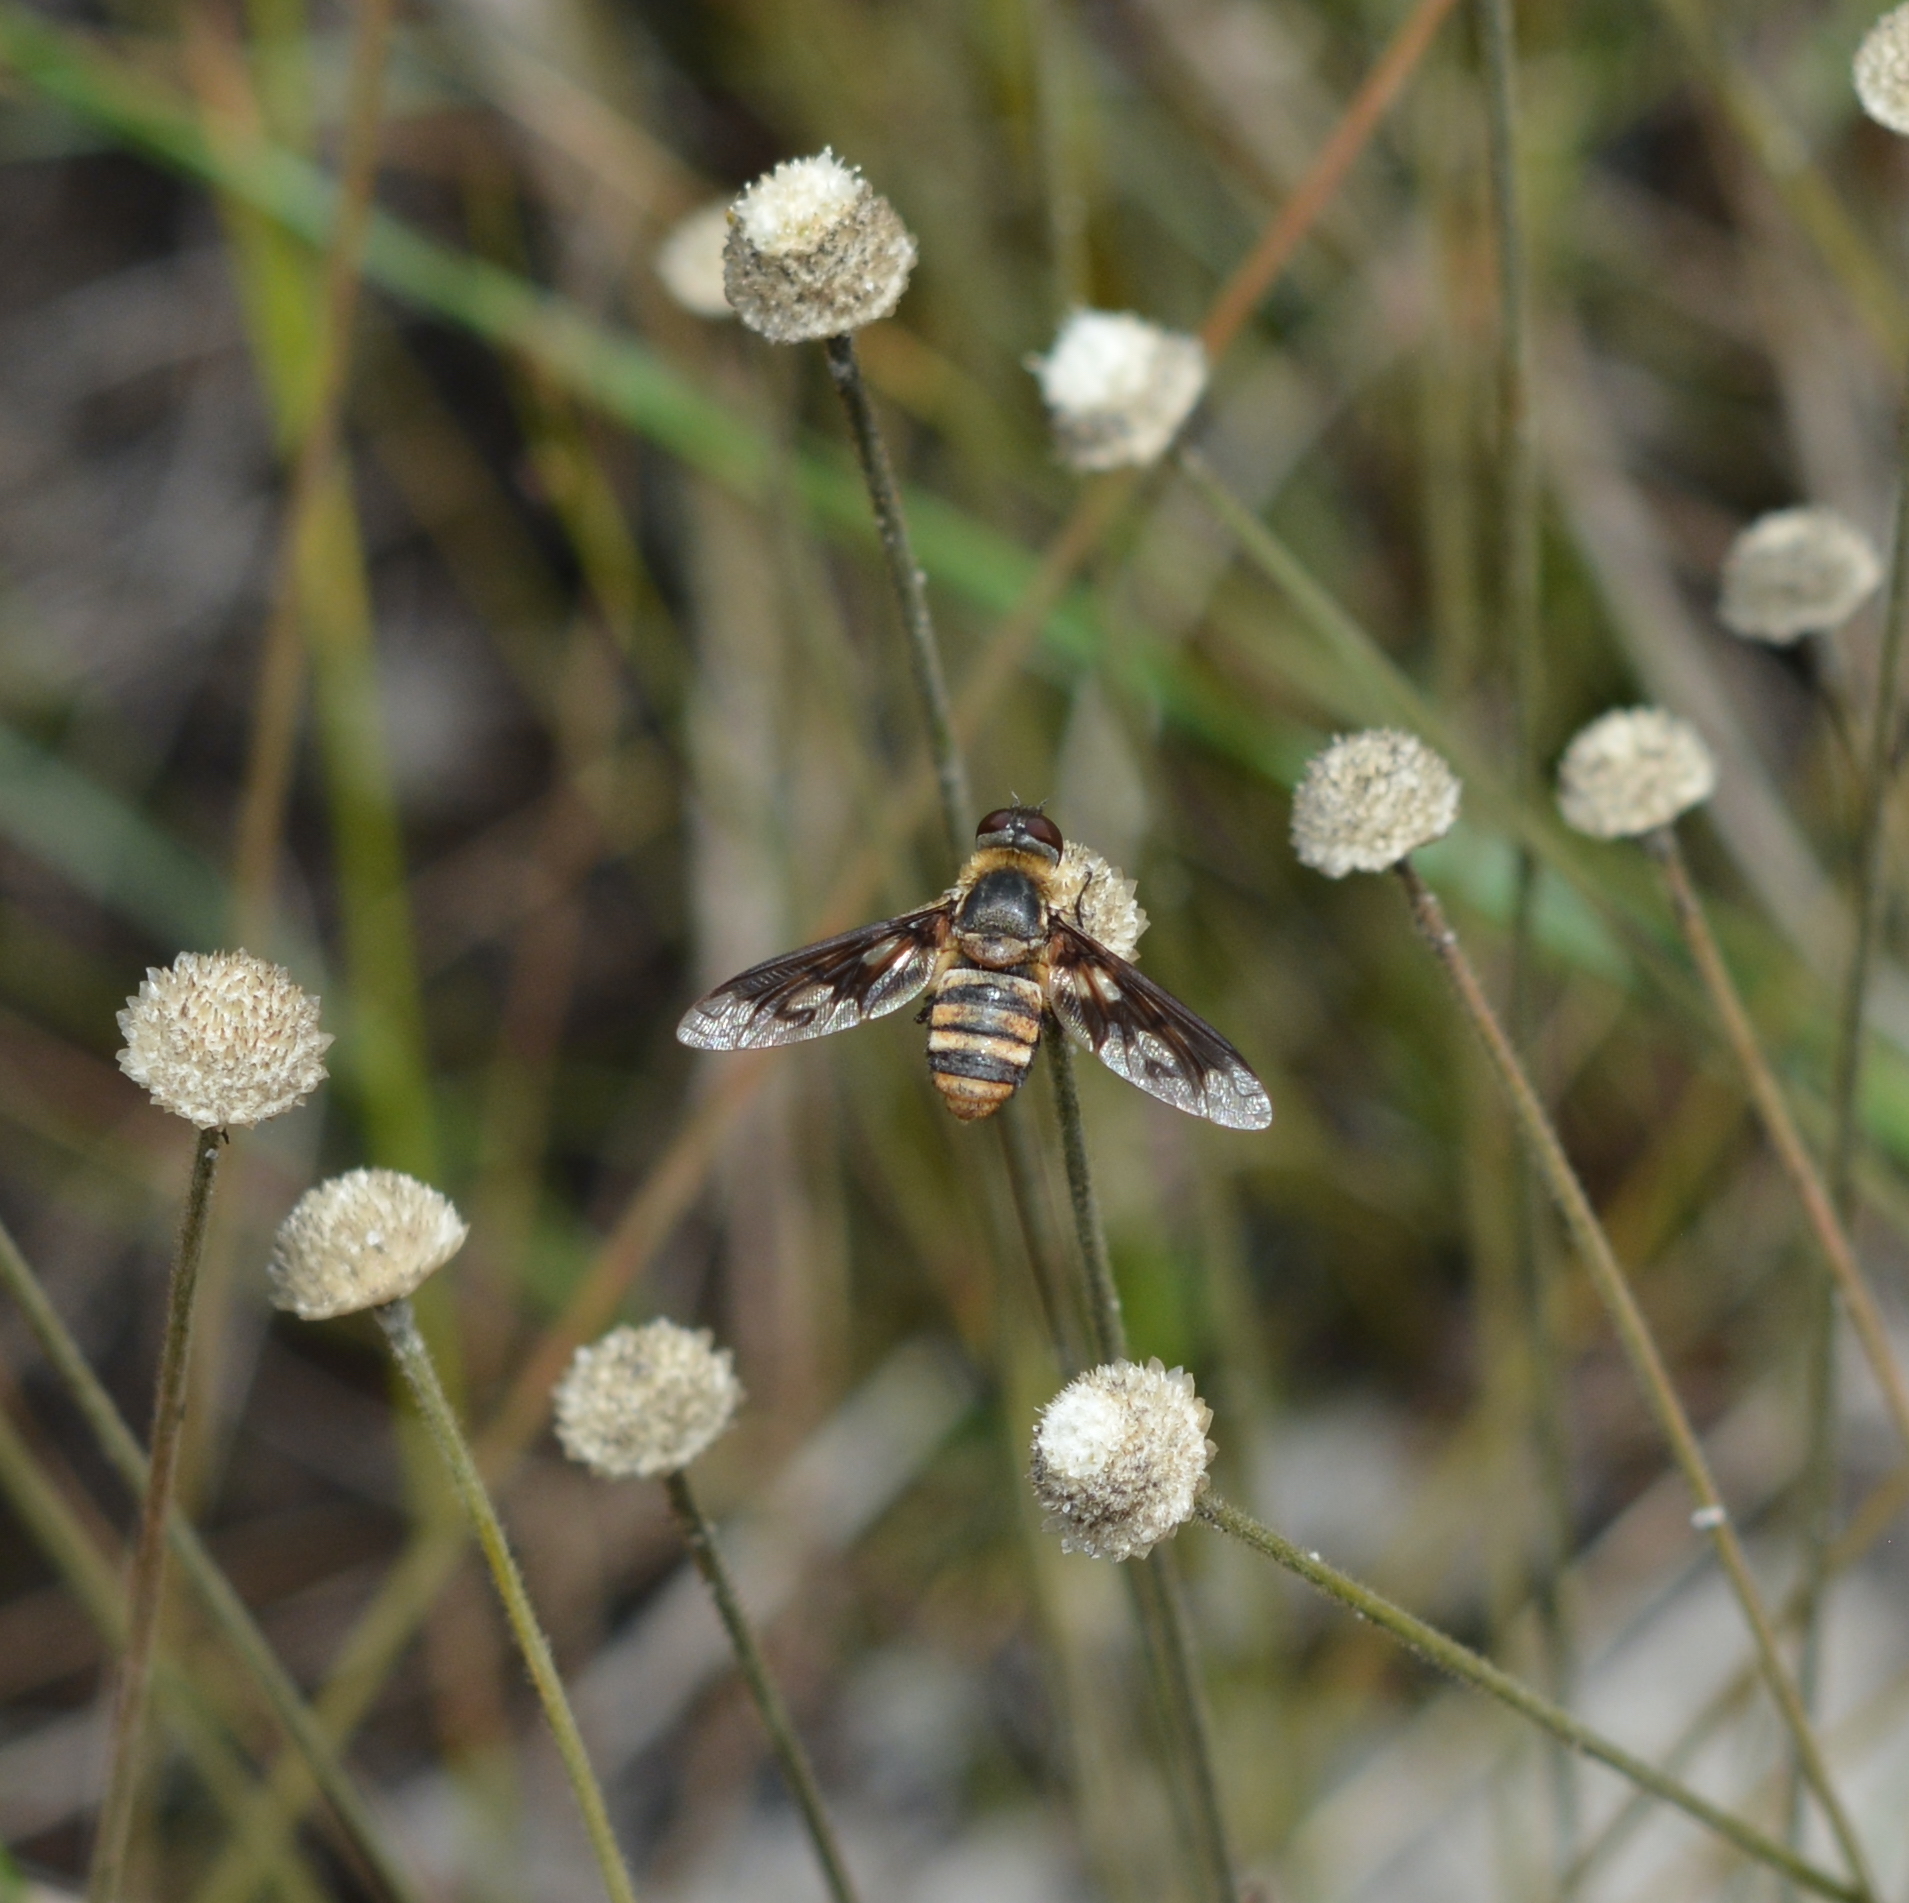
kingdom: Animalia
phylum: Arthropoda
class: Insecta
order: Diptera
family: Bombyliidae
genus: Exoprosopa
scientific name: Exoprosopa fascipennis
